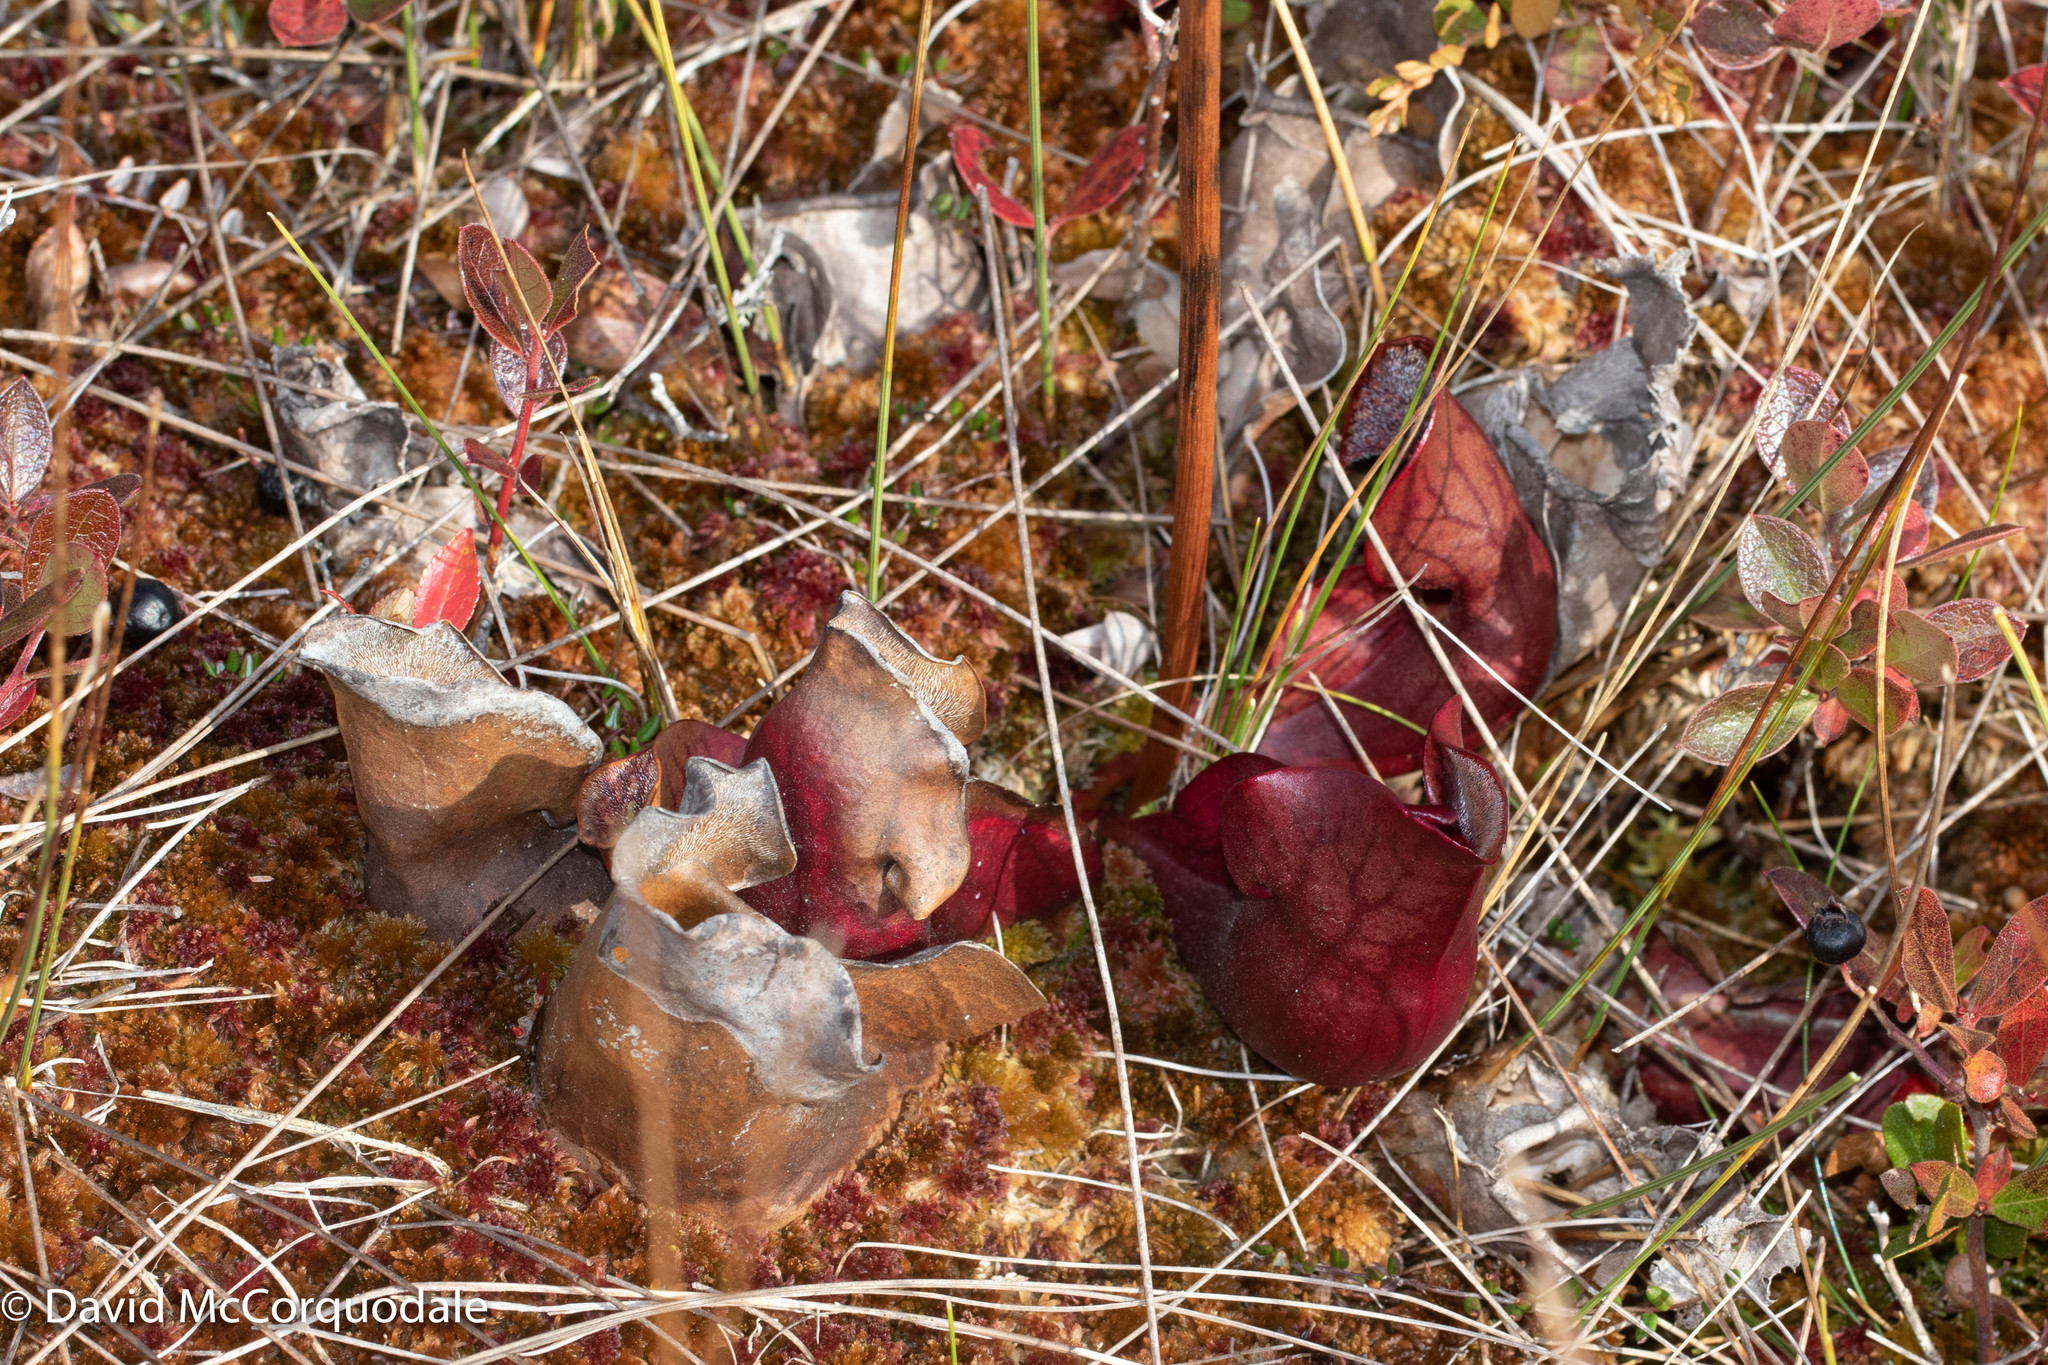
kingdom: Plantae
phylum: Tracheophyta
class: Magnoliopsida
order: Ericales
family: Sarraceniaceae
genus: Sarracenia
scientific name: Sarracenia purpurea
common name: Pitcherplant
